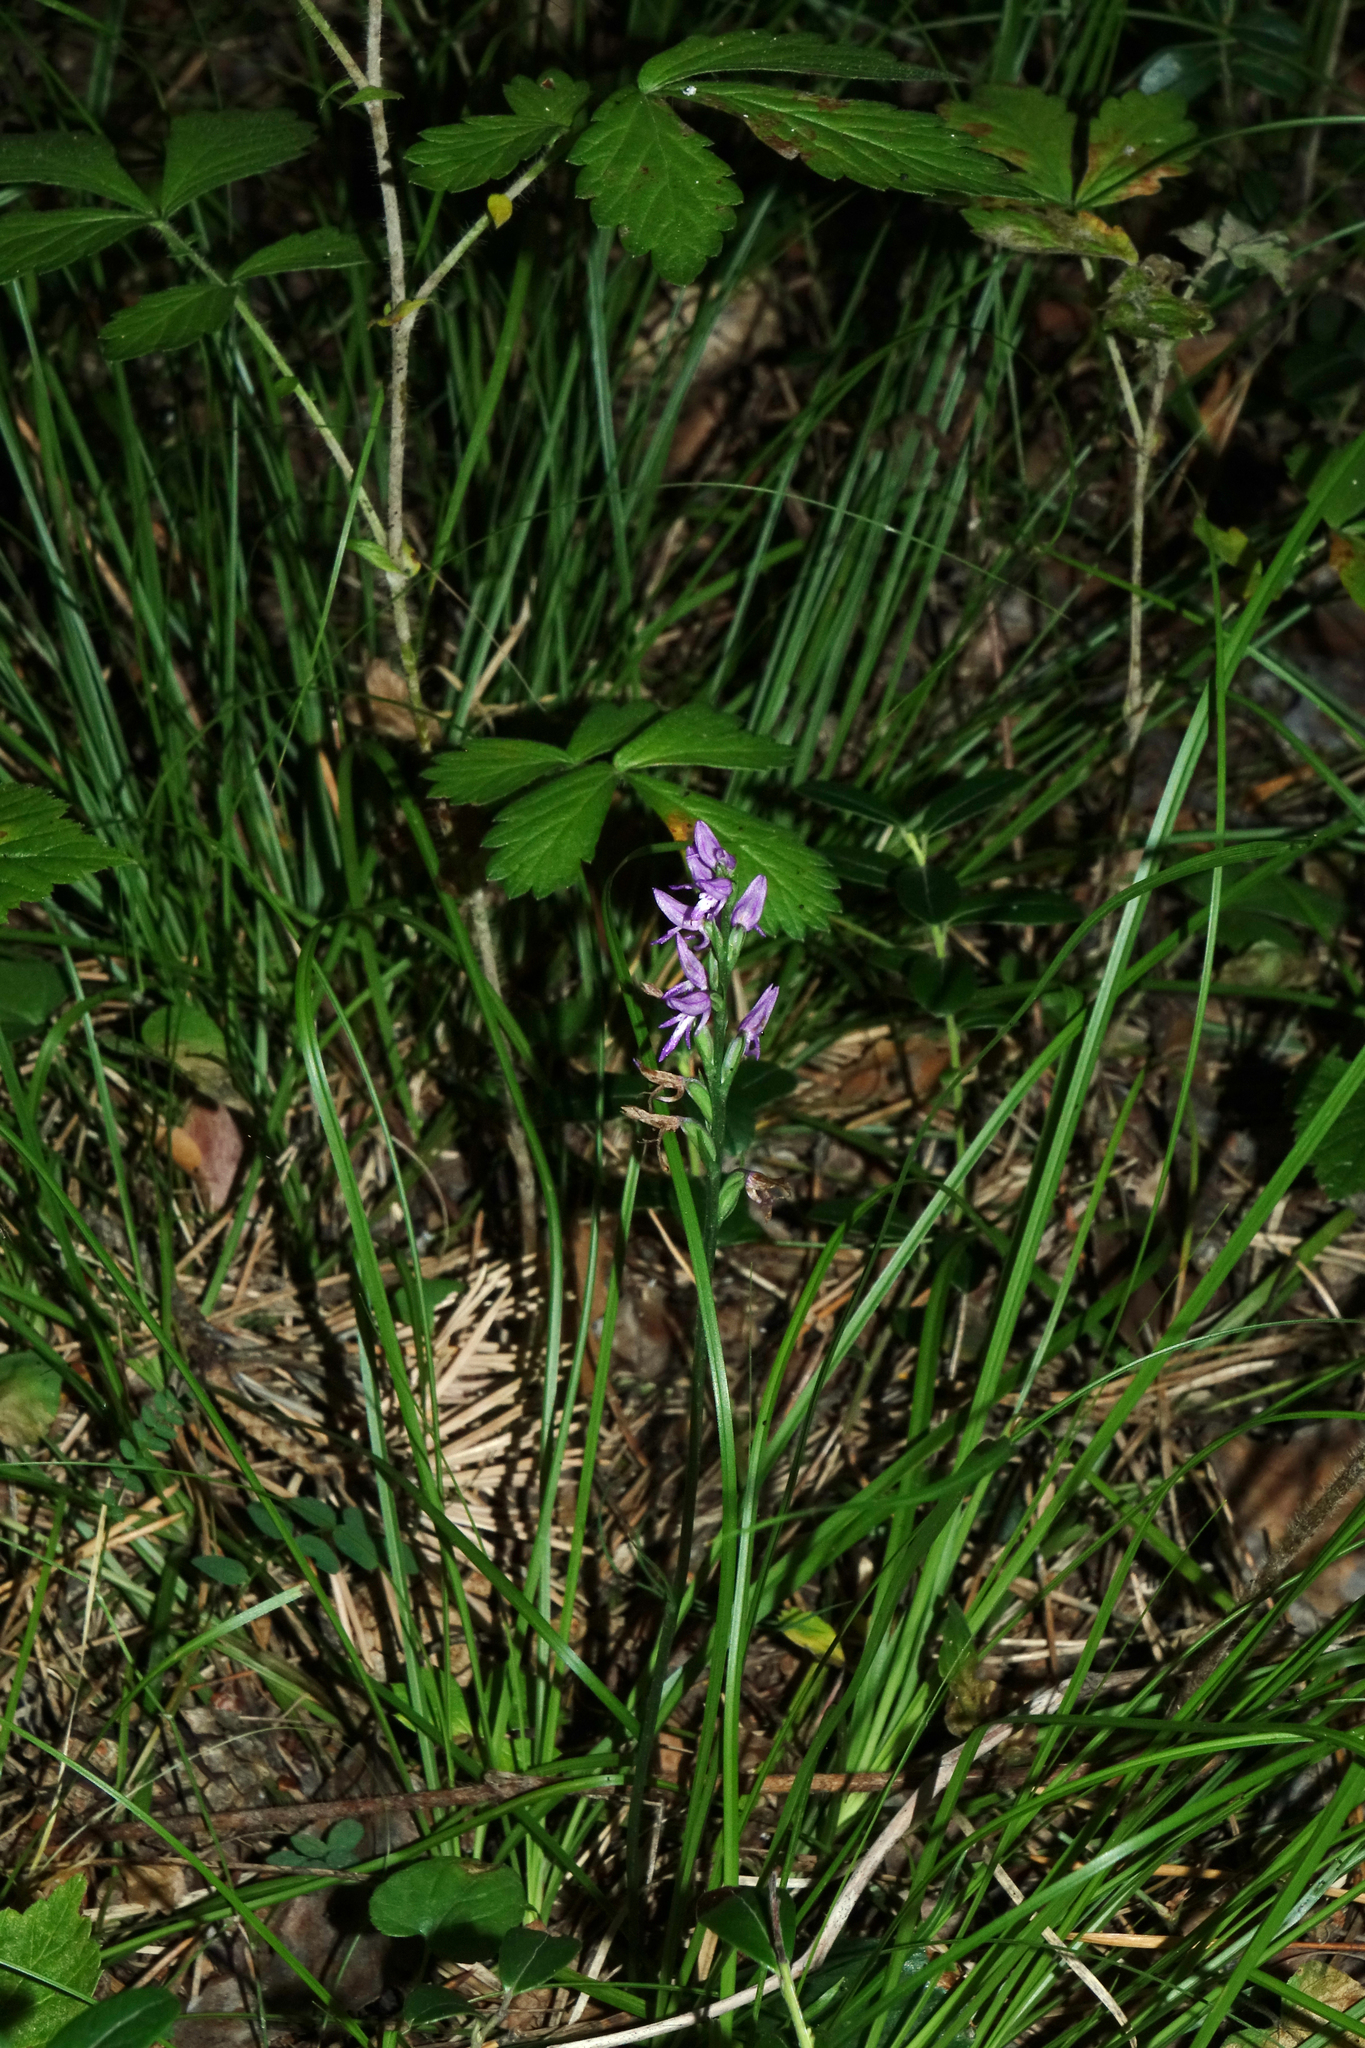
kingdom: Plantae
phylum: Tracheophyta
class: Liliopsida
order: Asparagales
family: Orchidaceae
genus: Hemipilia
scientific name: Hemipilia cucullata
